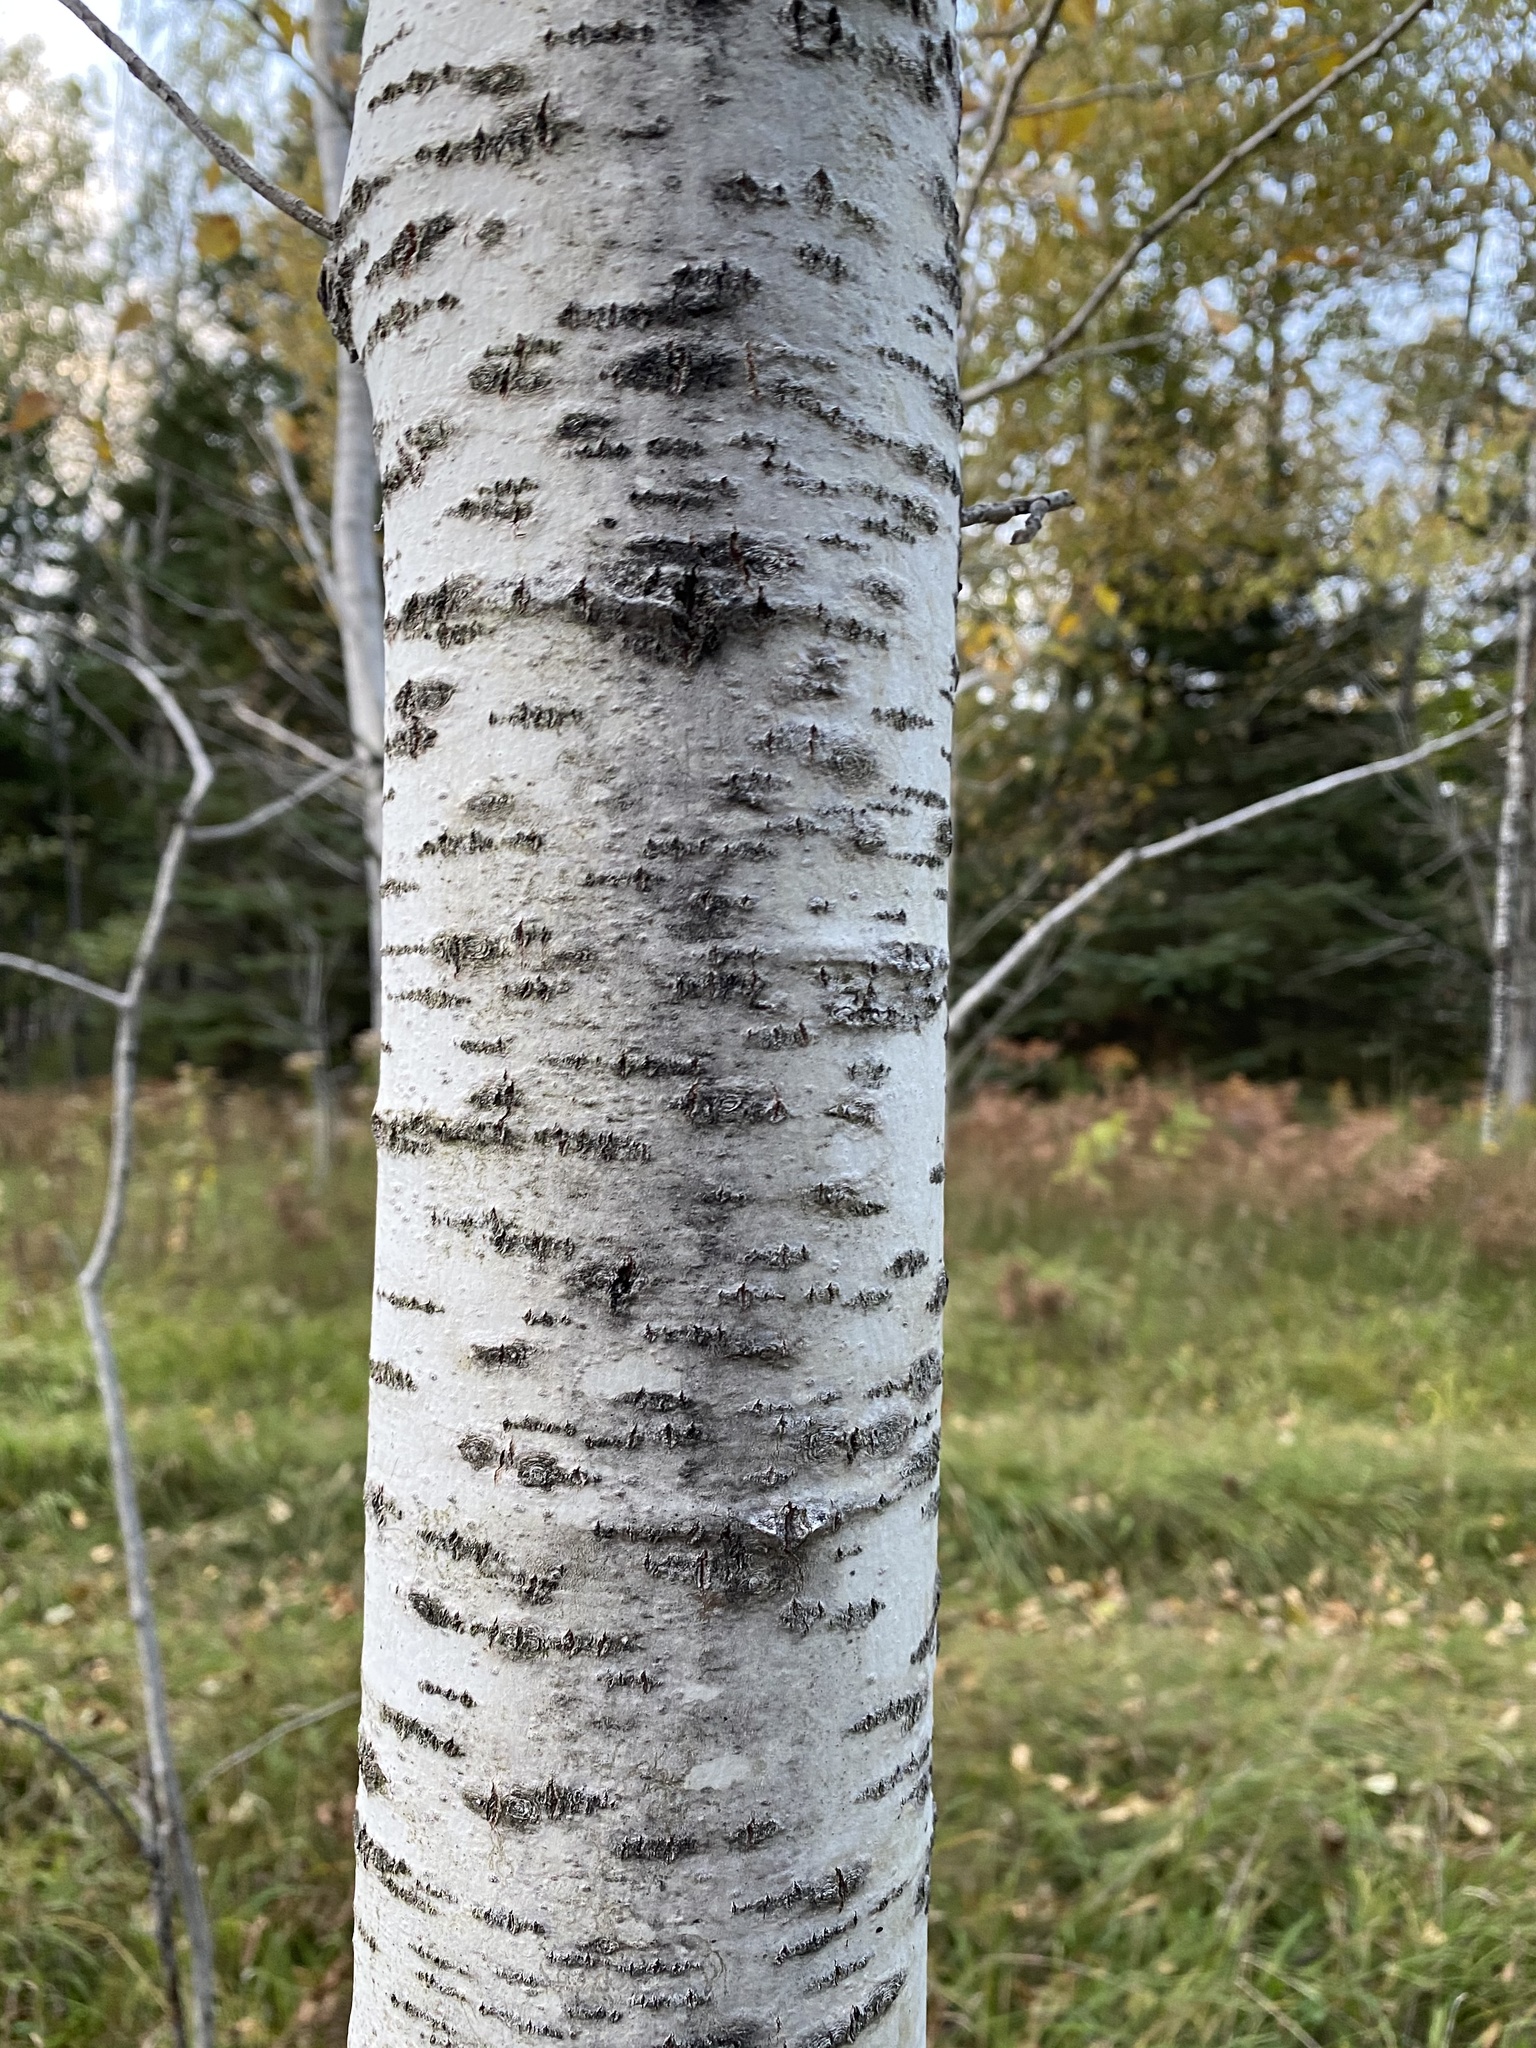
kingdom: Plantae
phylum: Tracheophyta
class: Magnoliopsida
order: Malpighiales
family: Salicaceae
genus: Populus
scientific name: Populus tremuloides
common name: Quaking aspen
